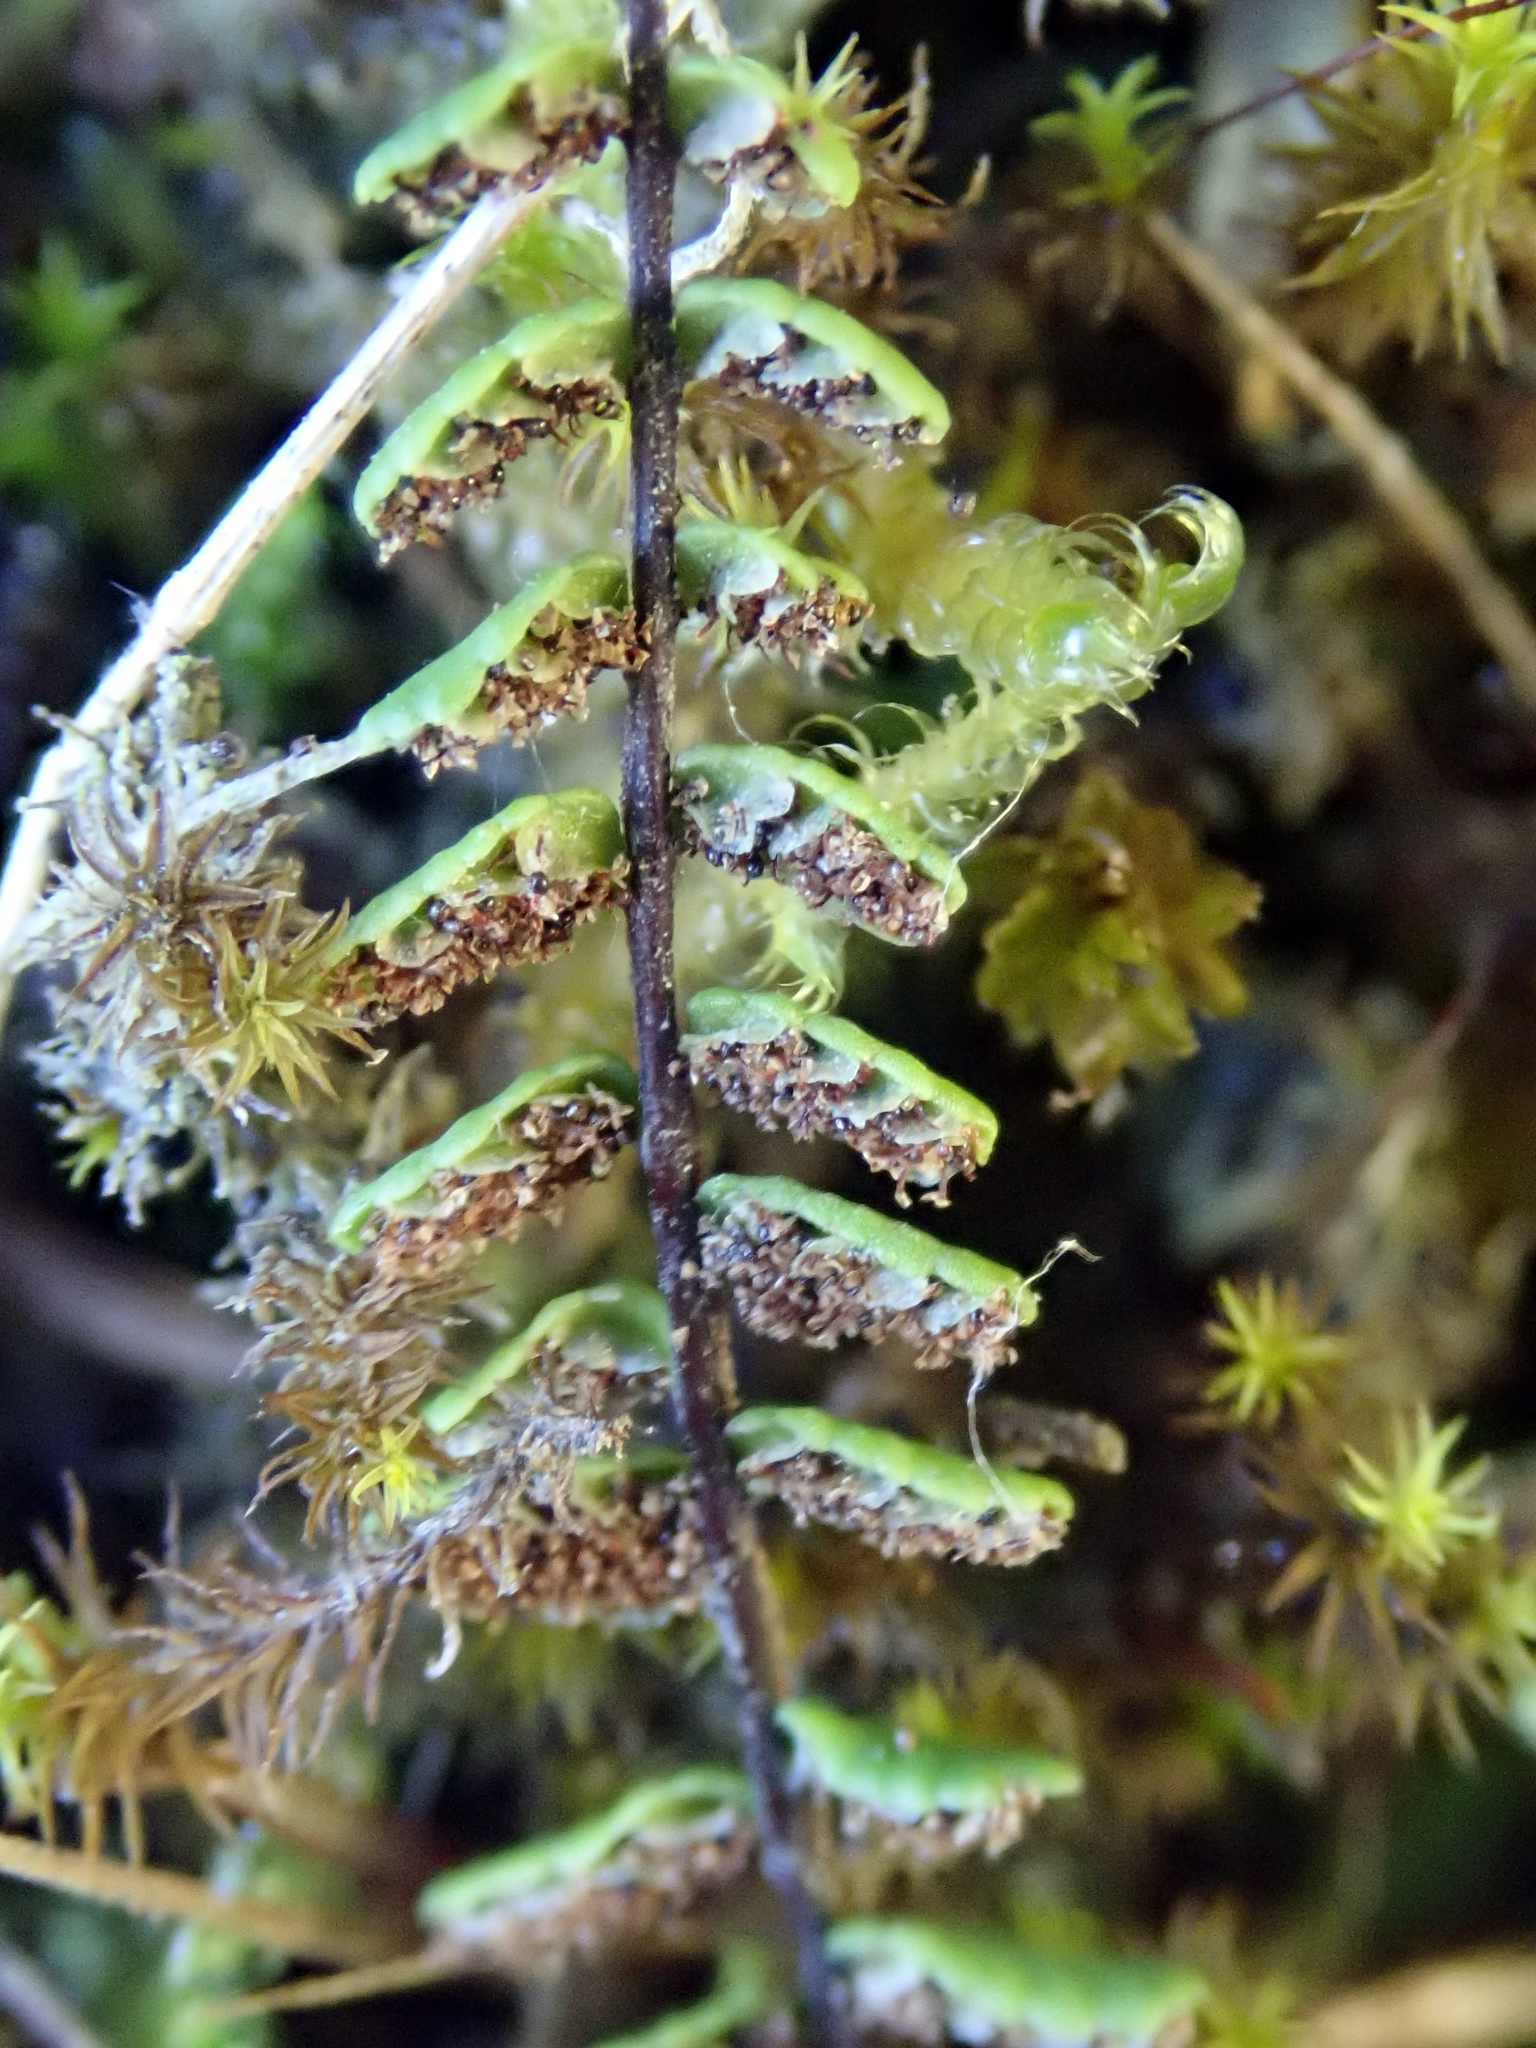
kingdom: Plantae
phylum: Tracheophyta
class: Polypodiopsida
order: Polypodiales
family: Aspleniaceae
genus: Asplenium
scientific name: Asplenium trichomanes
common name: Maidenhair spleenwort
